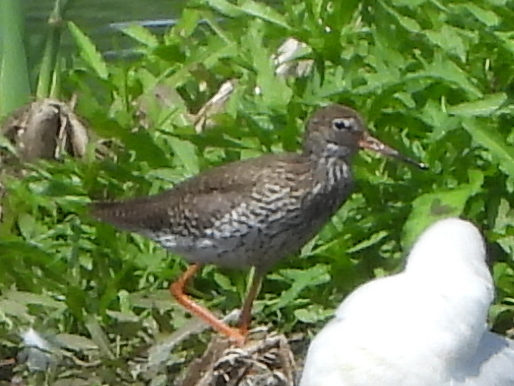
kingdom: Animalia
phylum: Chordata
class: Aves
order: Charadriiformes
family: Scolopacidae
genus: Tringa
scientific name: Tringa totanus
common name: Common redshank
